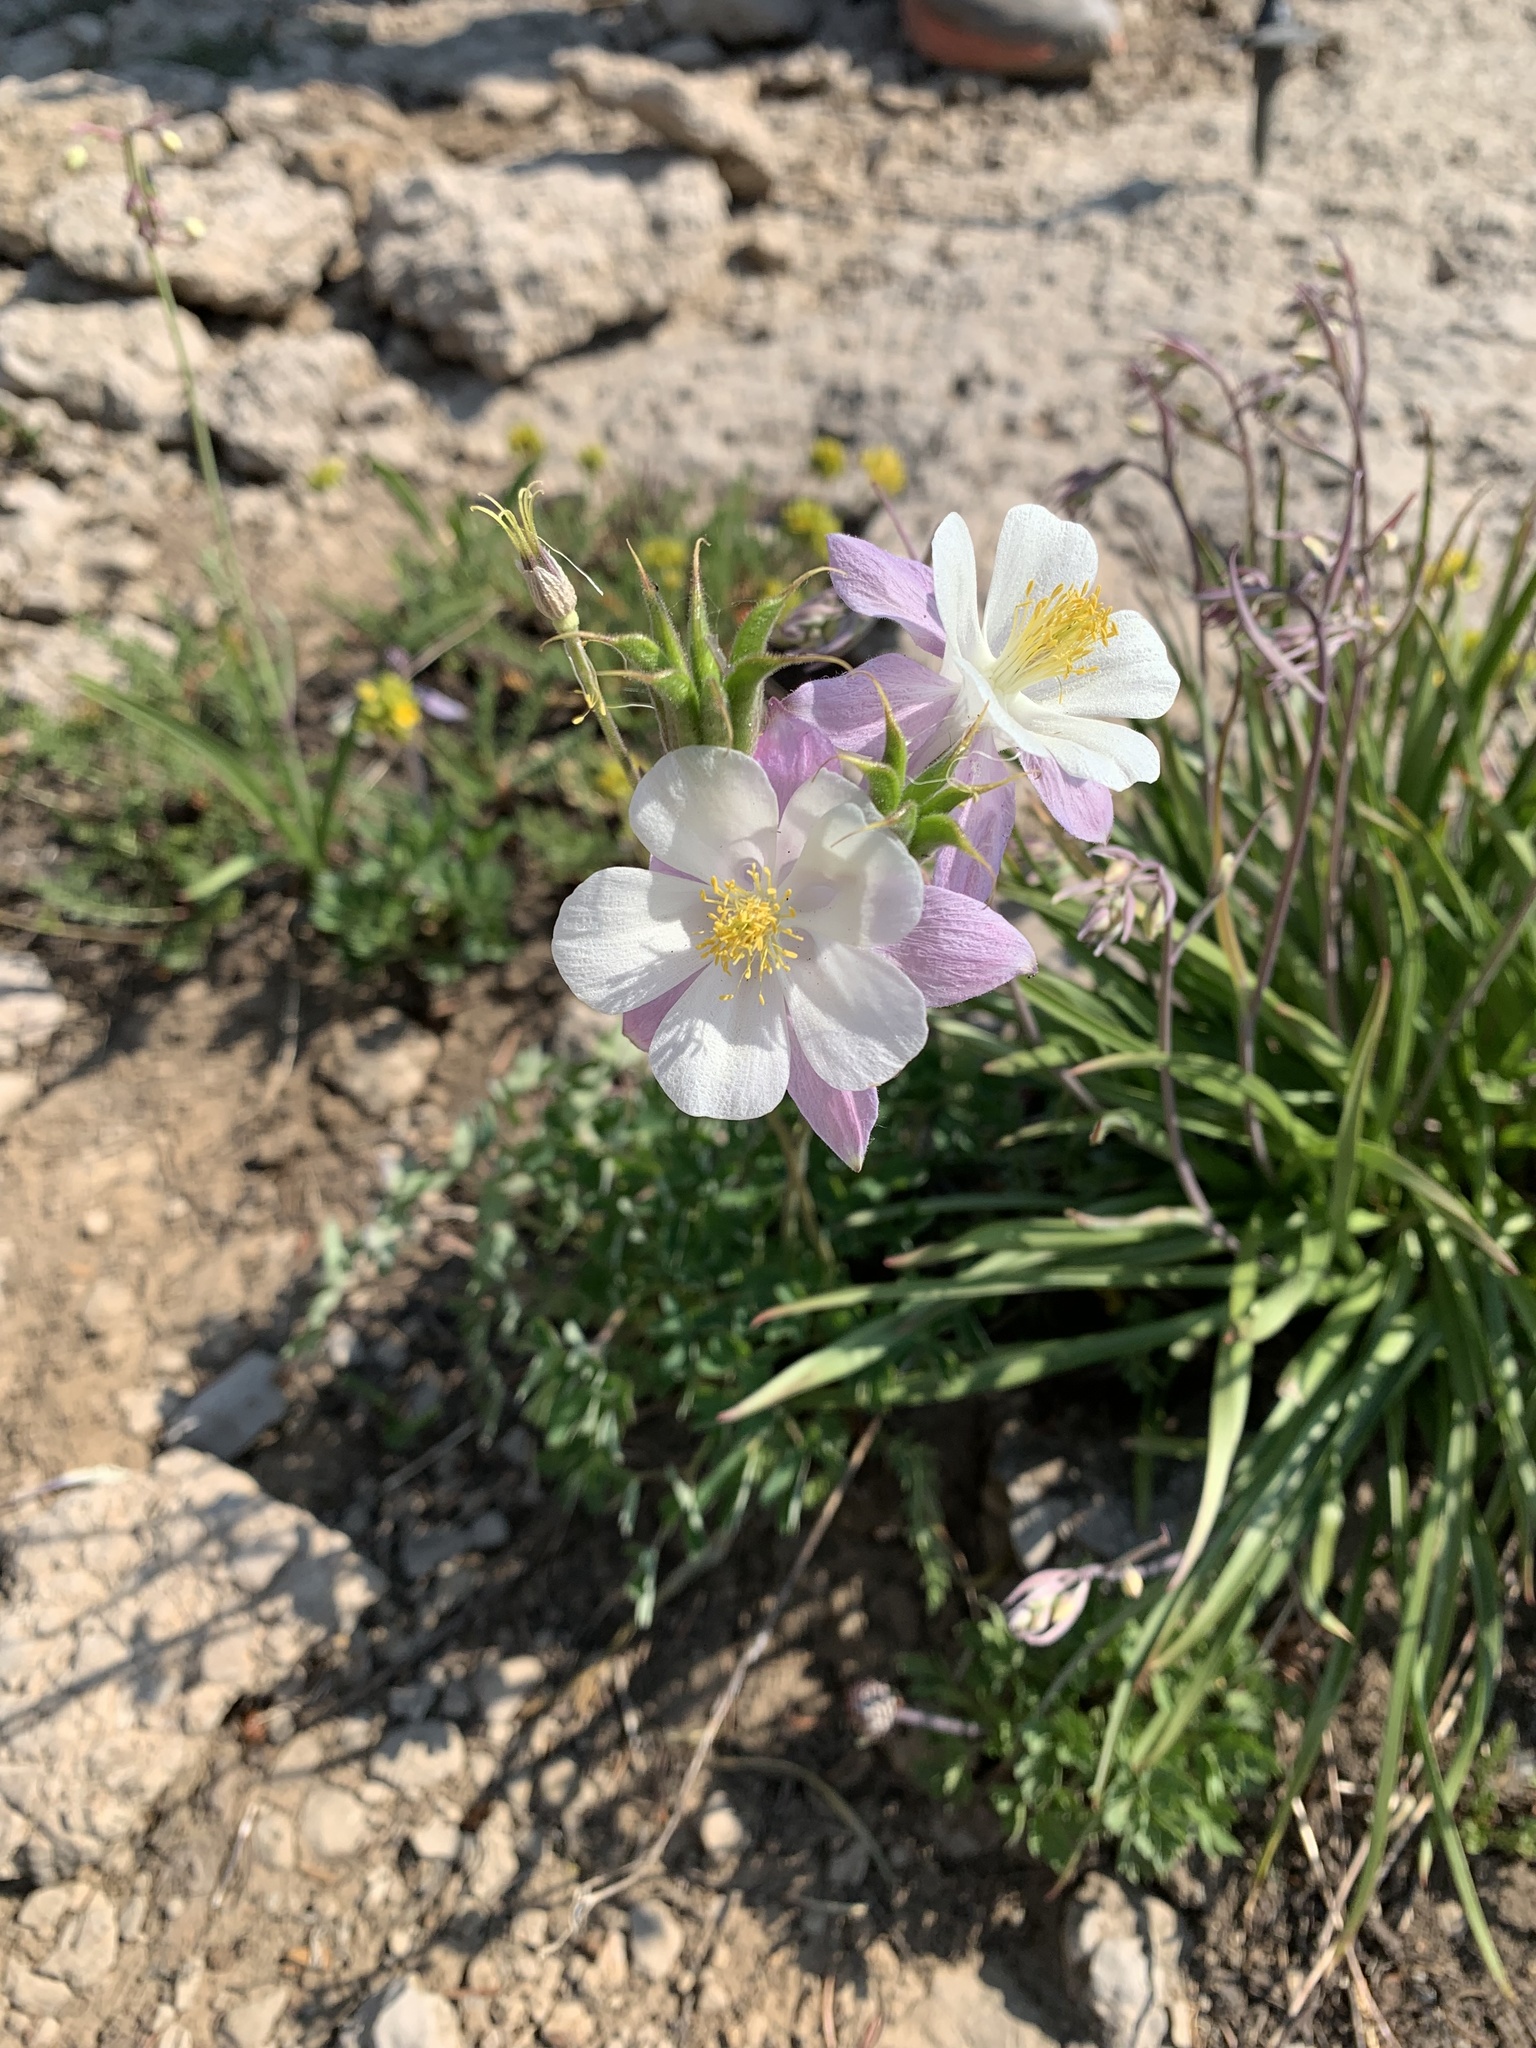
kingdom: Plantae
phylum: Tracheophyta
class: Magnoliopsida
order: Ranunculales
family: Ranunculaceae
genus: Aquilegia
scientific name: Aquilegia coerulea
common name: Rocky mountain columbine
